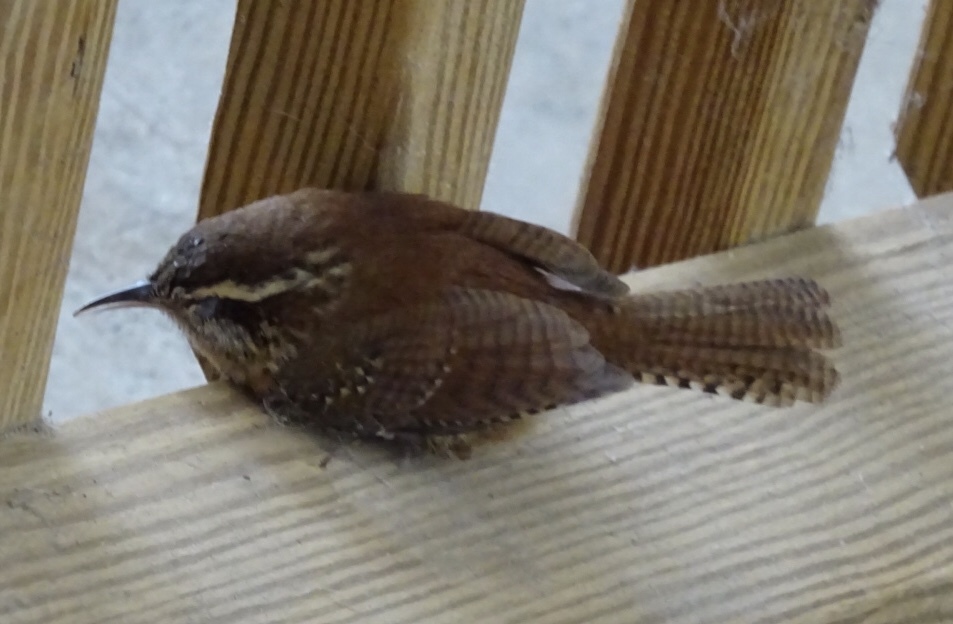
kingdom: Animalia
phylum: Chordata
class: Aves
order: Passeriformes
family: Troglodytidae
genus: Thryothorus
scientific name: Thryothorus ludovicianus
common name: Carolina wren
